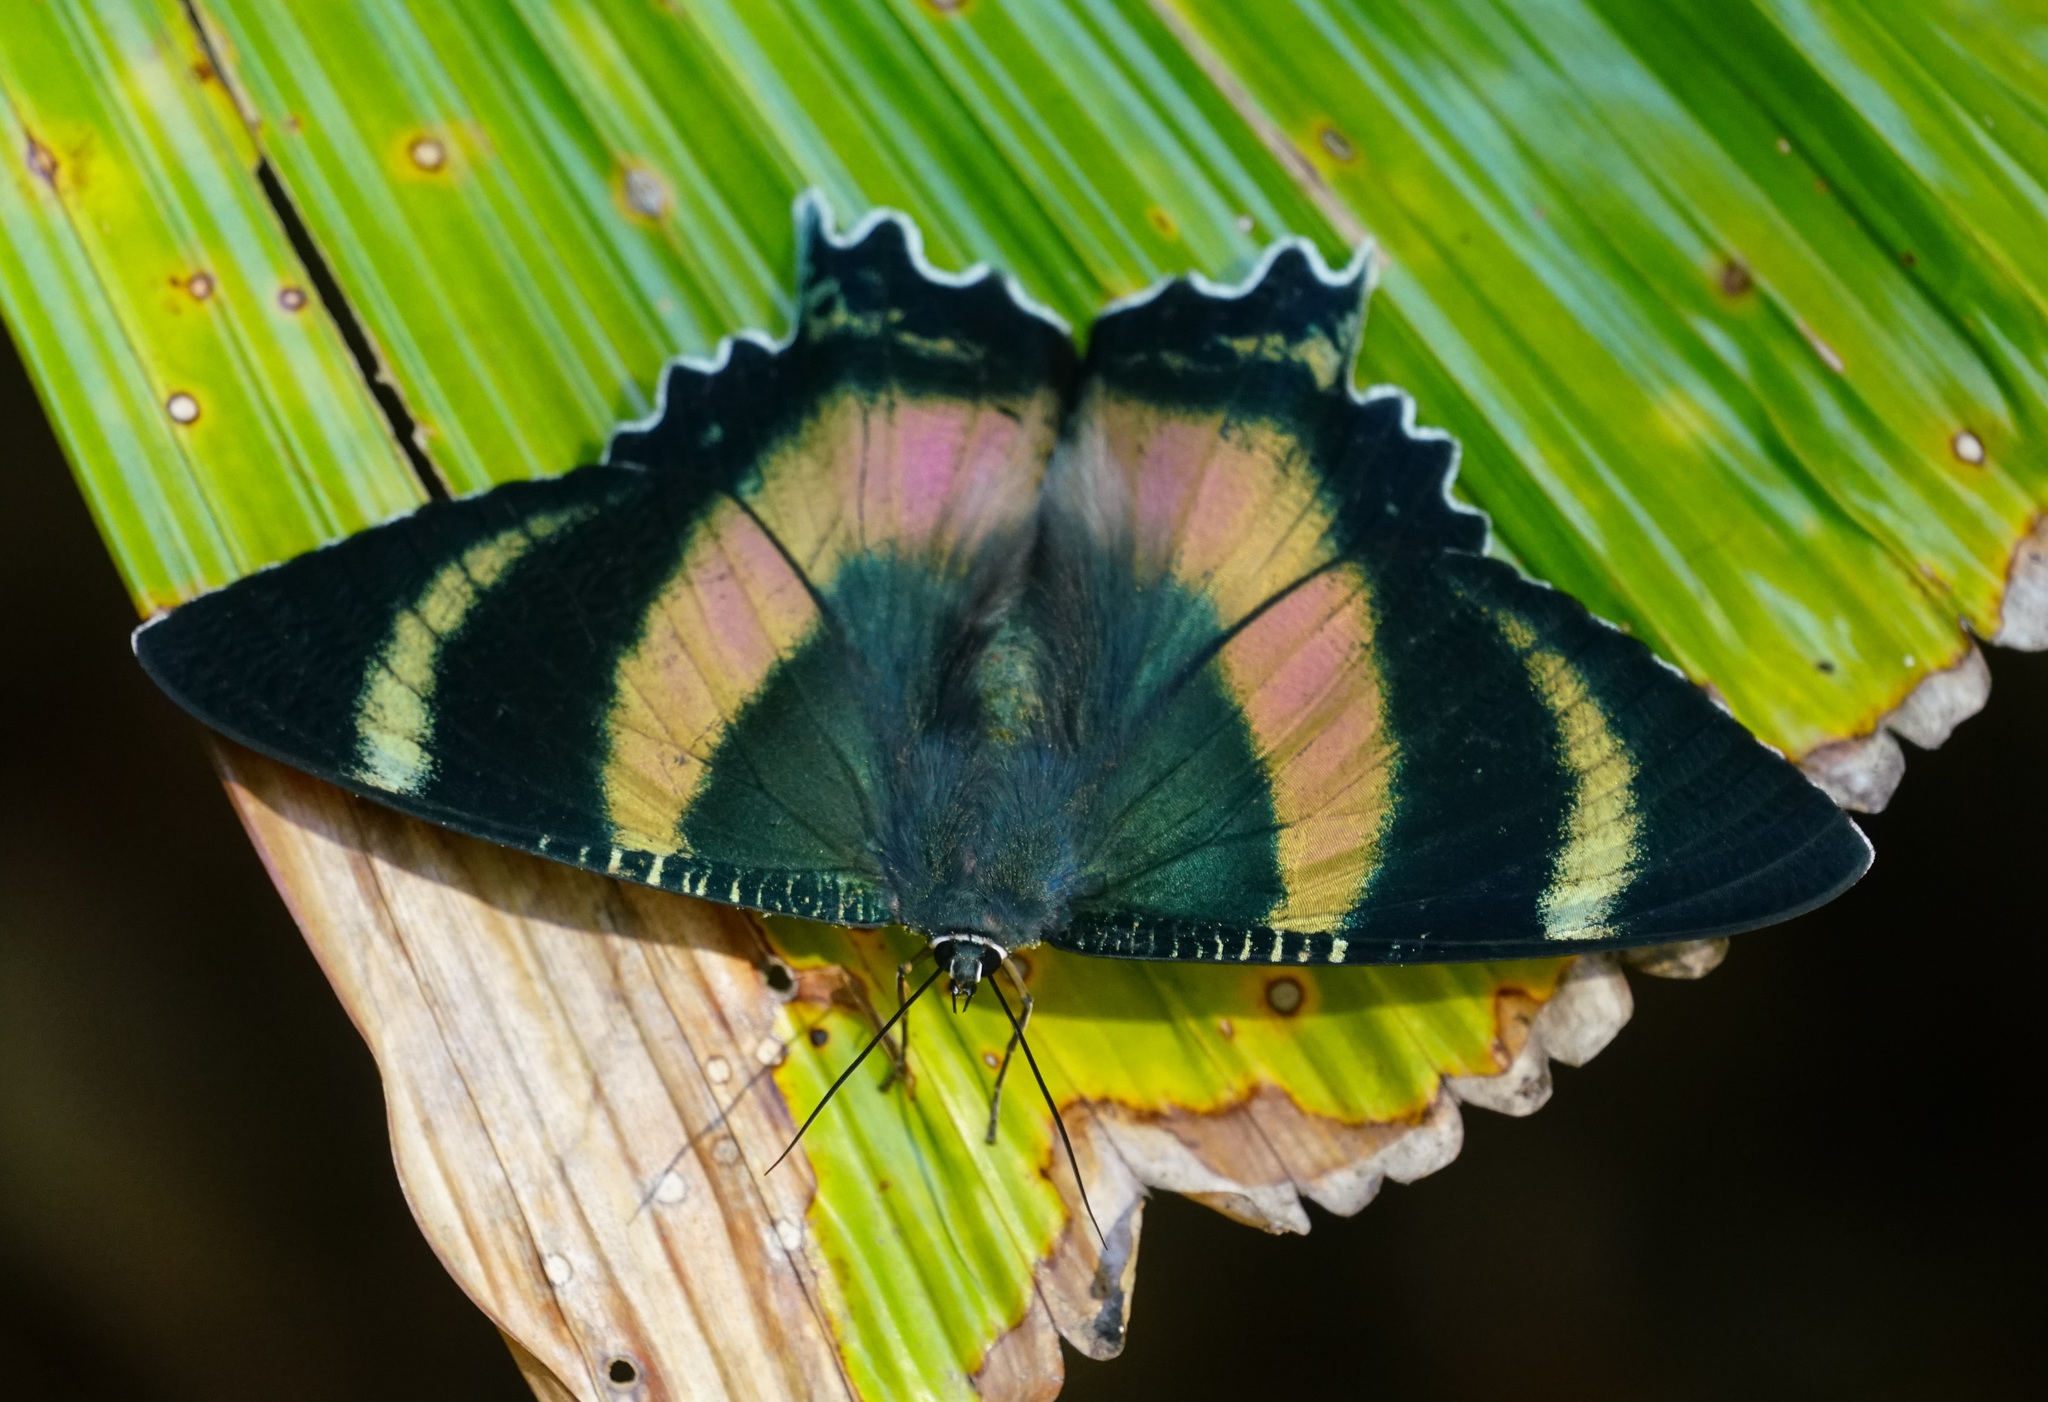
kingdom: Animalia
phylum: Arthropoda
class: Insecta
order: Lepidoptera
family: Uraniidae
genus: Alcides
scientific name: Alcides metaurus
